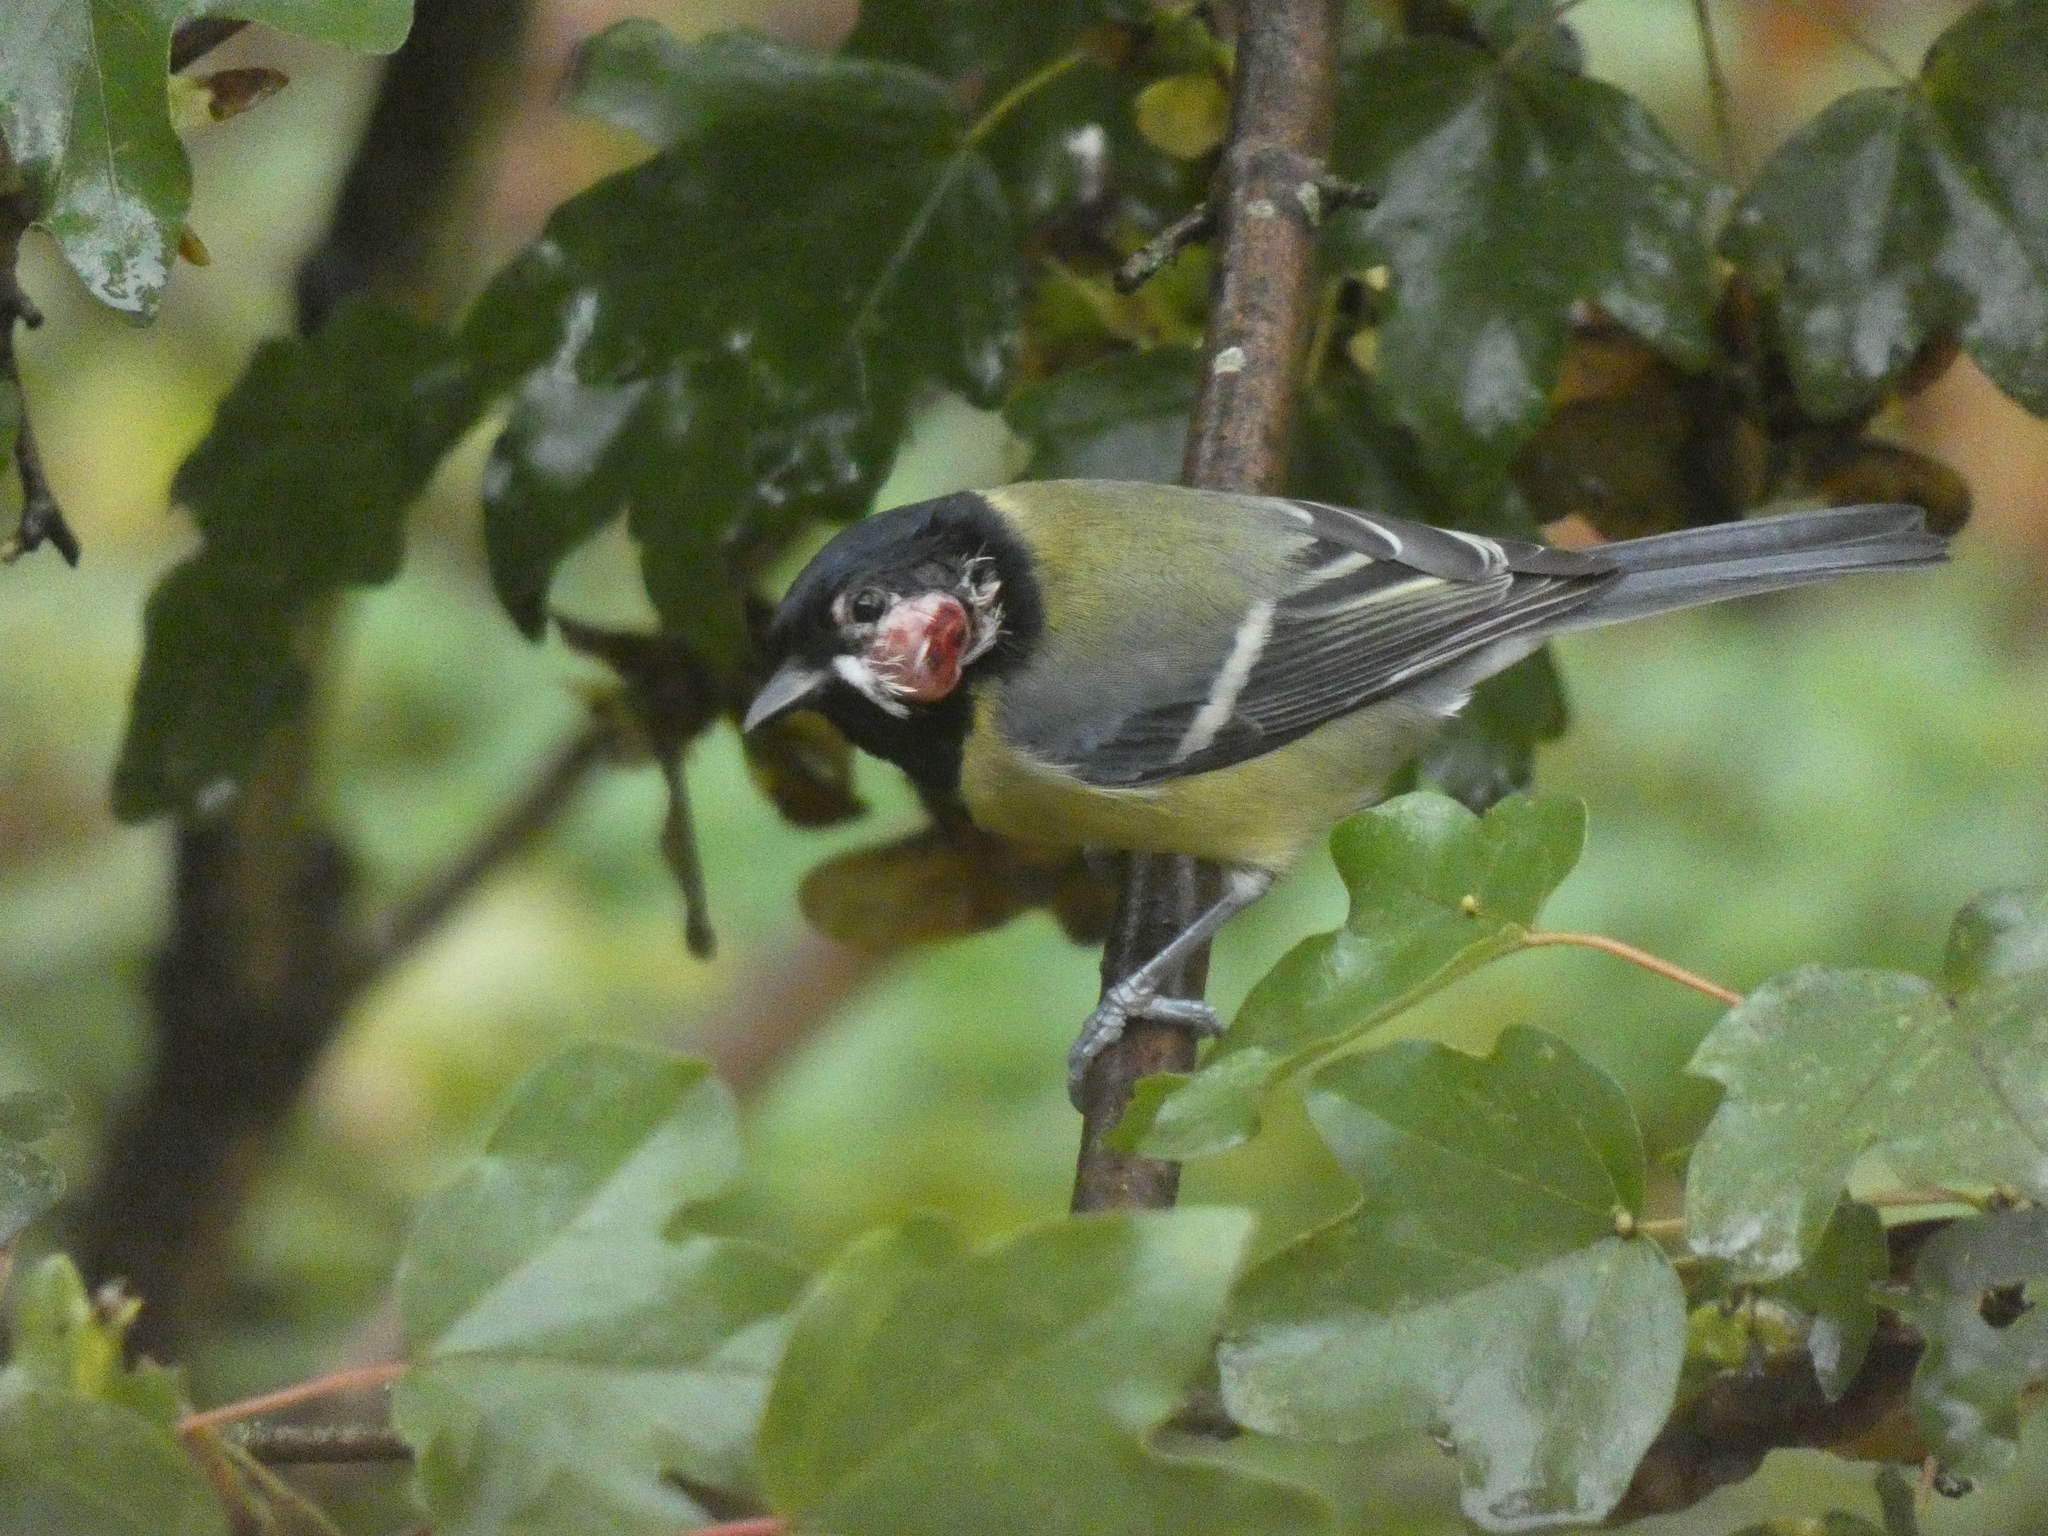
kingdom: Viruses
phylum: Nucleocytoviricota
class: Pokkesviricetes
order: Chitovirales
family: Poxviridae
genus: Avipoxvirus
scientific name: Avipoxvirus
